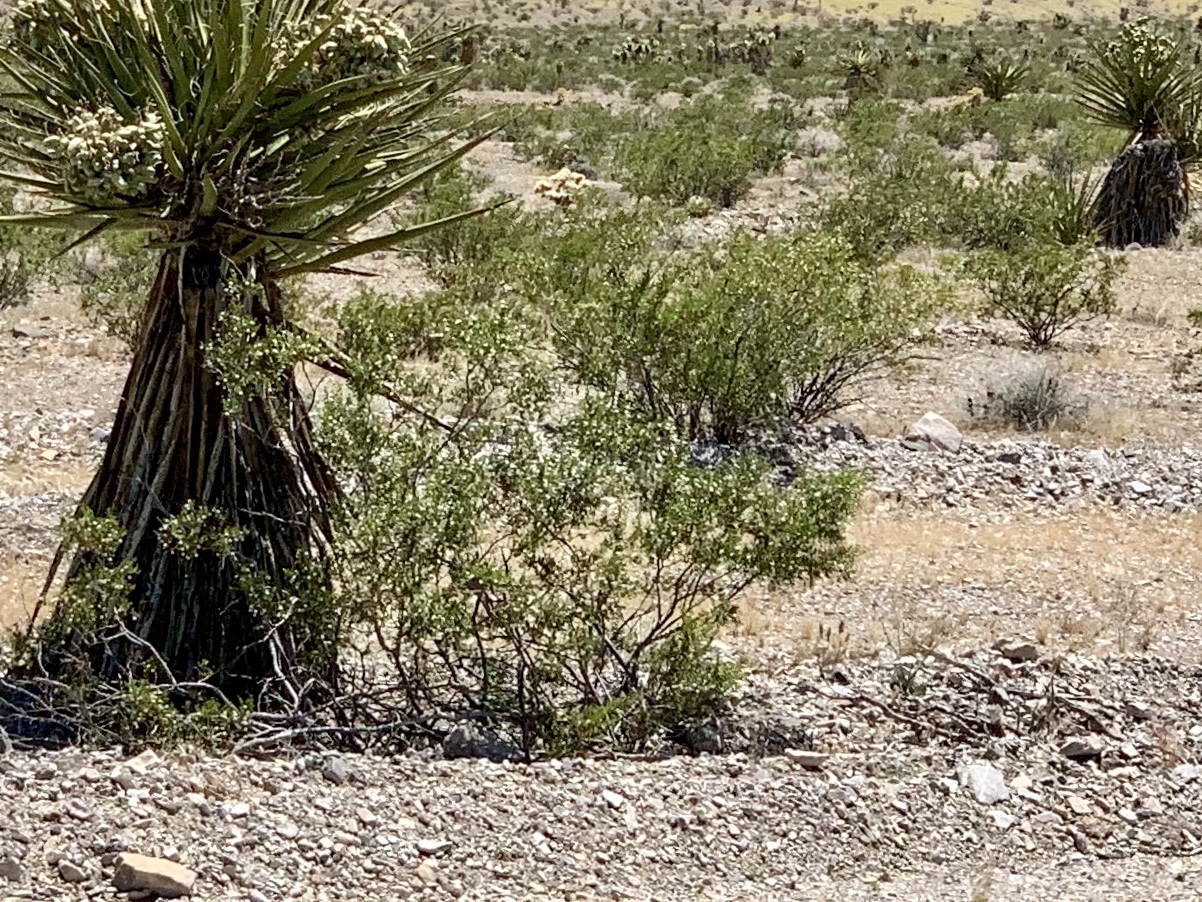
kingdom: Plantae
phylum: Tracheophyta
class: Magnoliopsida
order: Zygophyllales
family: Zygophyllaceae
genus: Larrea
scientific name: Larrea tridentata
